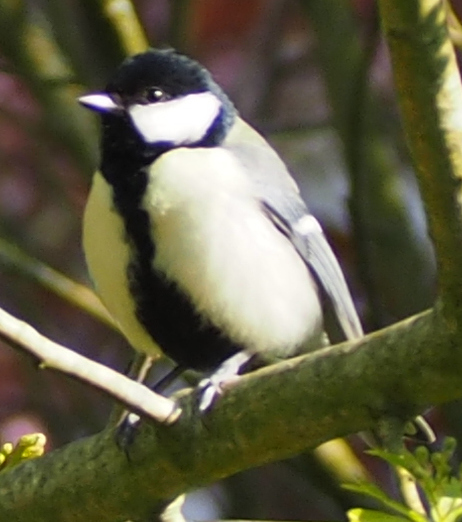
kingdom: Animalia
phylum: Chordata
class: Aves
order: Passeriformes
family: Paridae
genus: Parus
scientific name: Parus major
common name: Great tit
